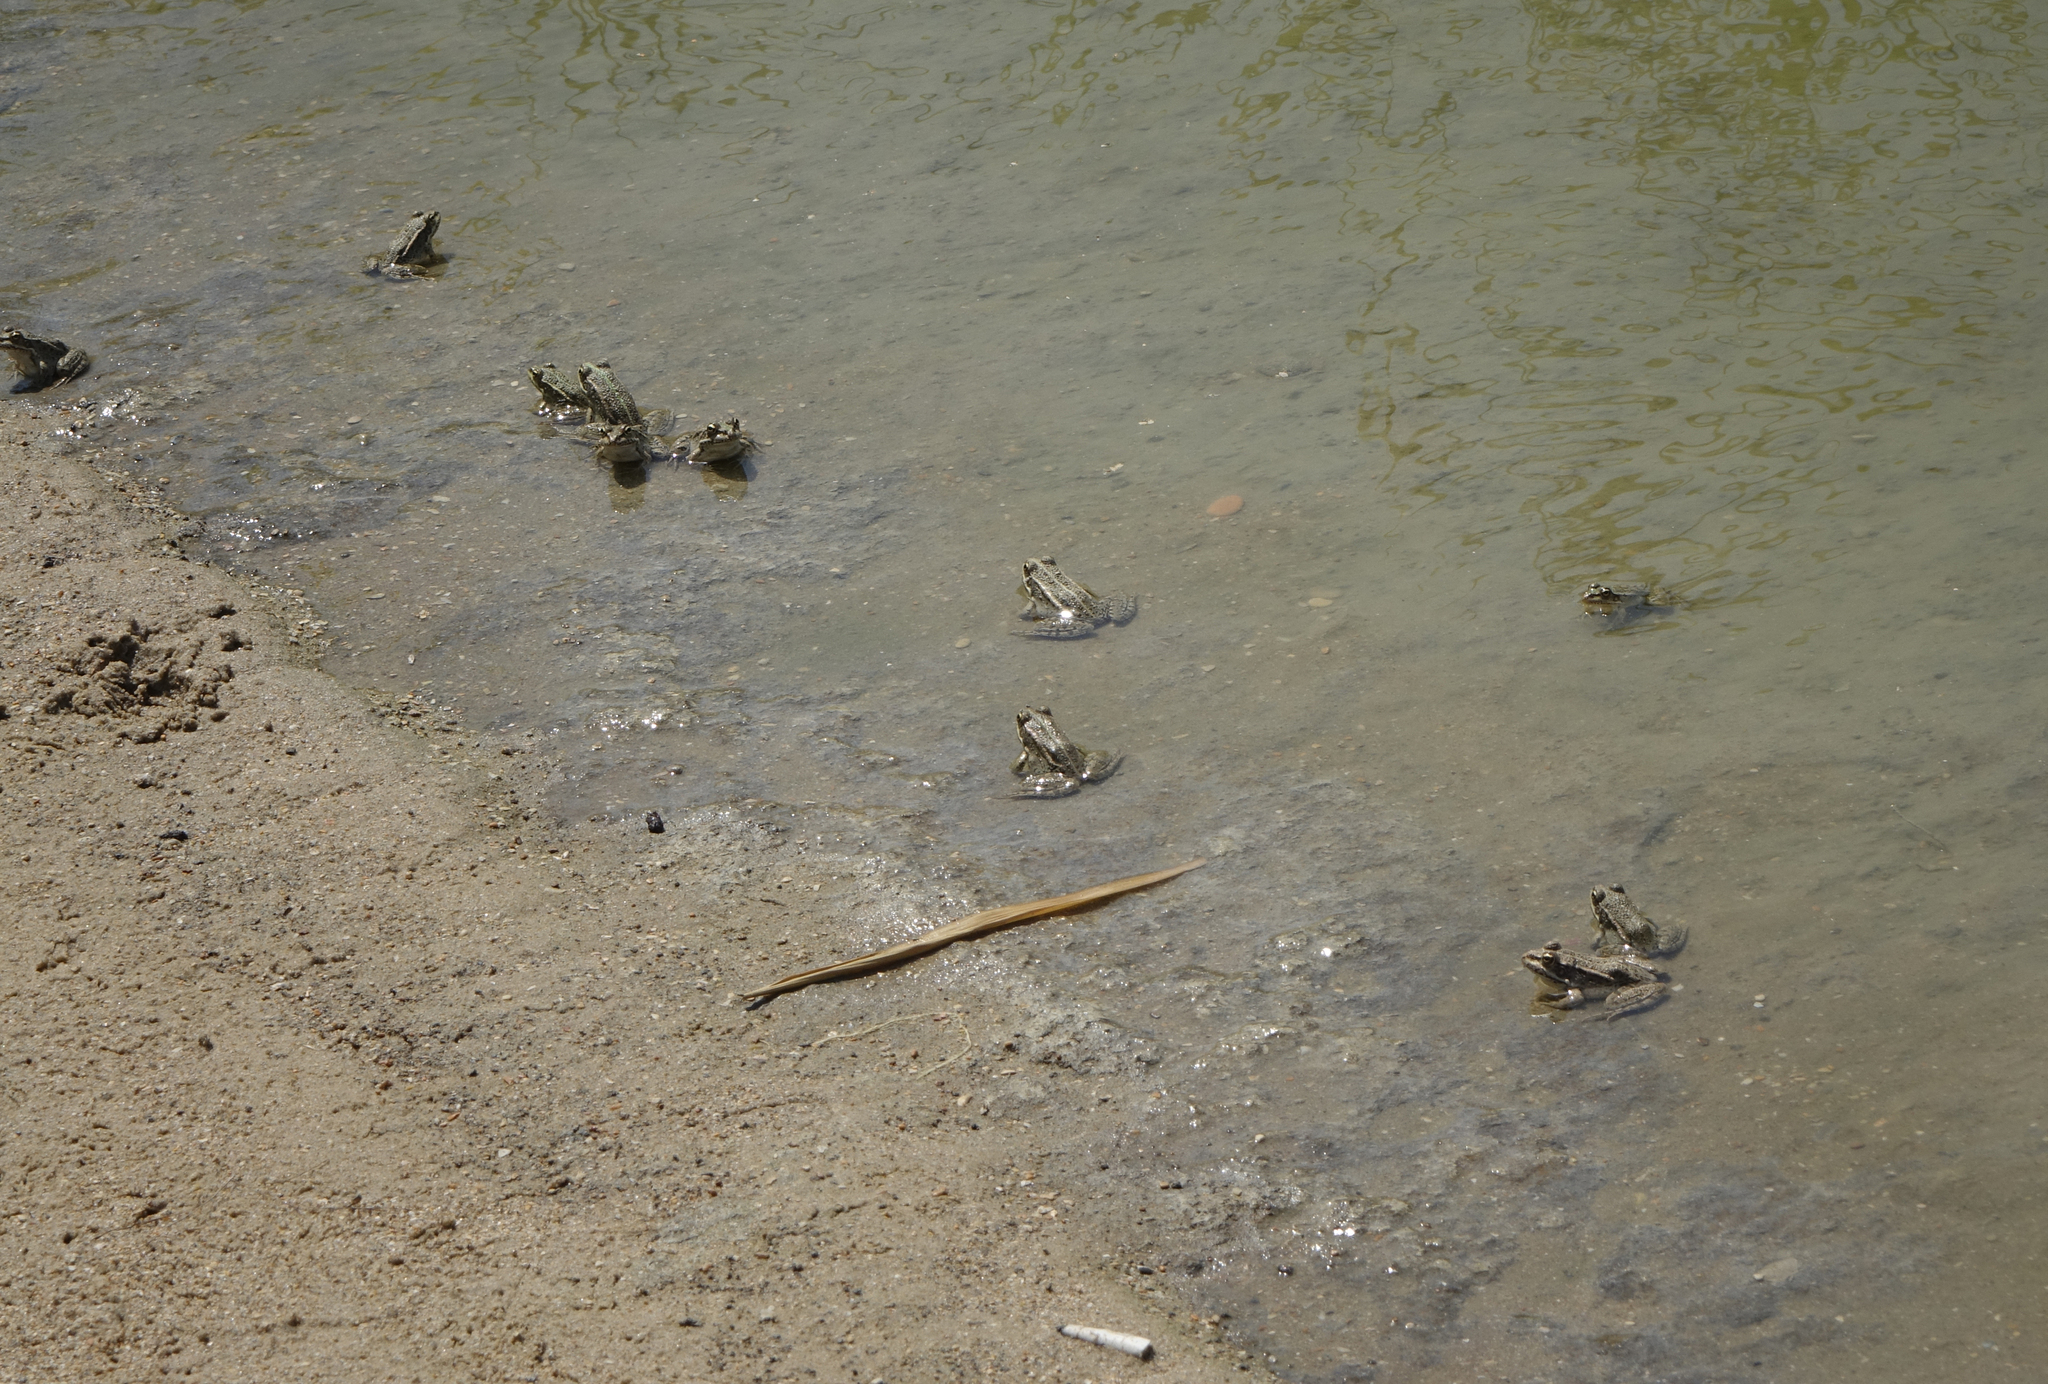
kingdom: Animalia
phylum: Chordata
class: Amphibia
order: Anura
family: Ranidae
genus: Pelophylax
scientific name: Pelophylax ridibundus
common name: Marsh frog
